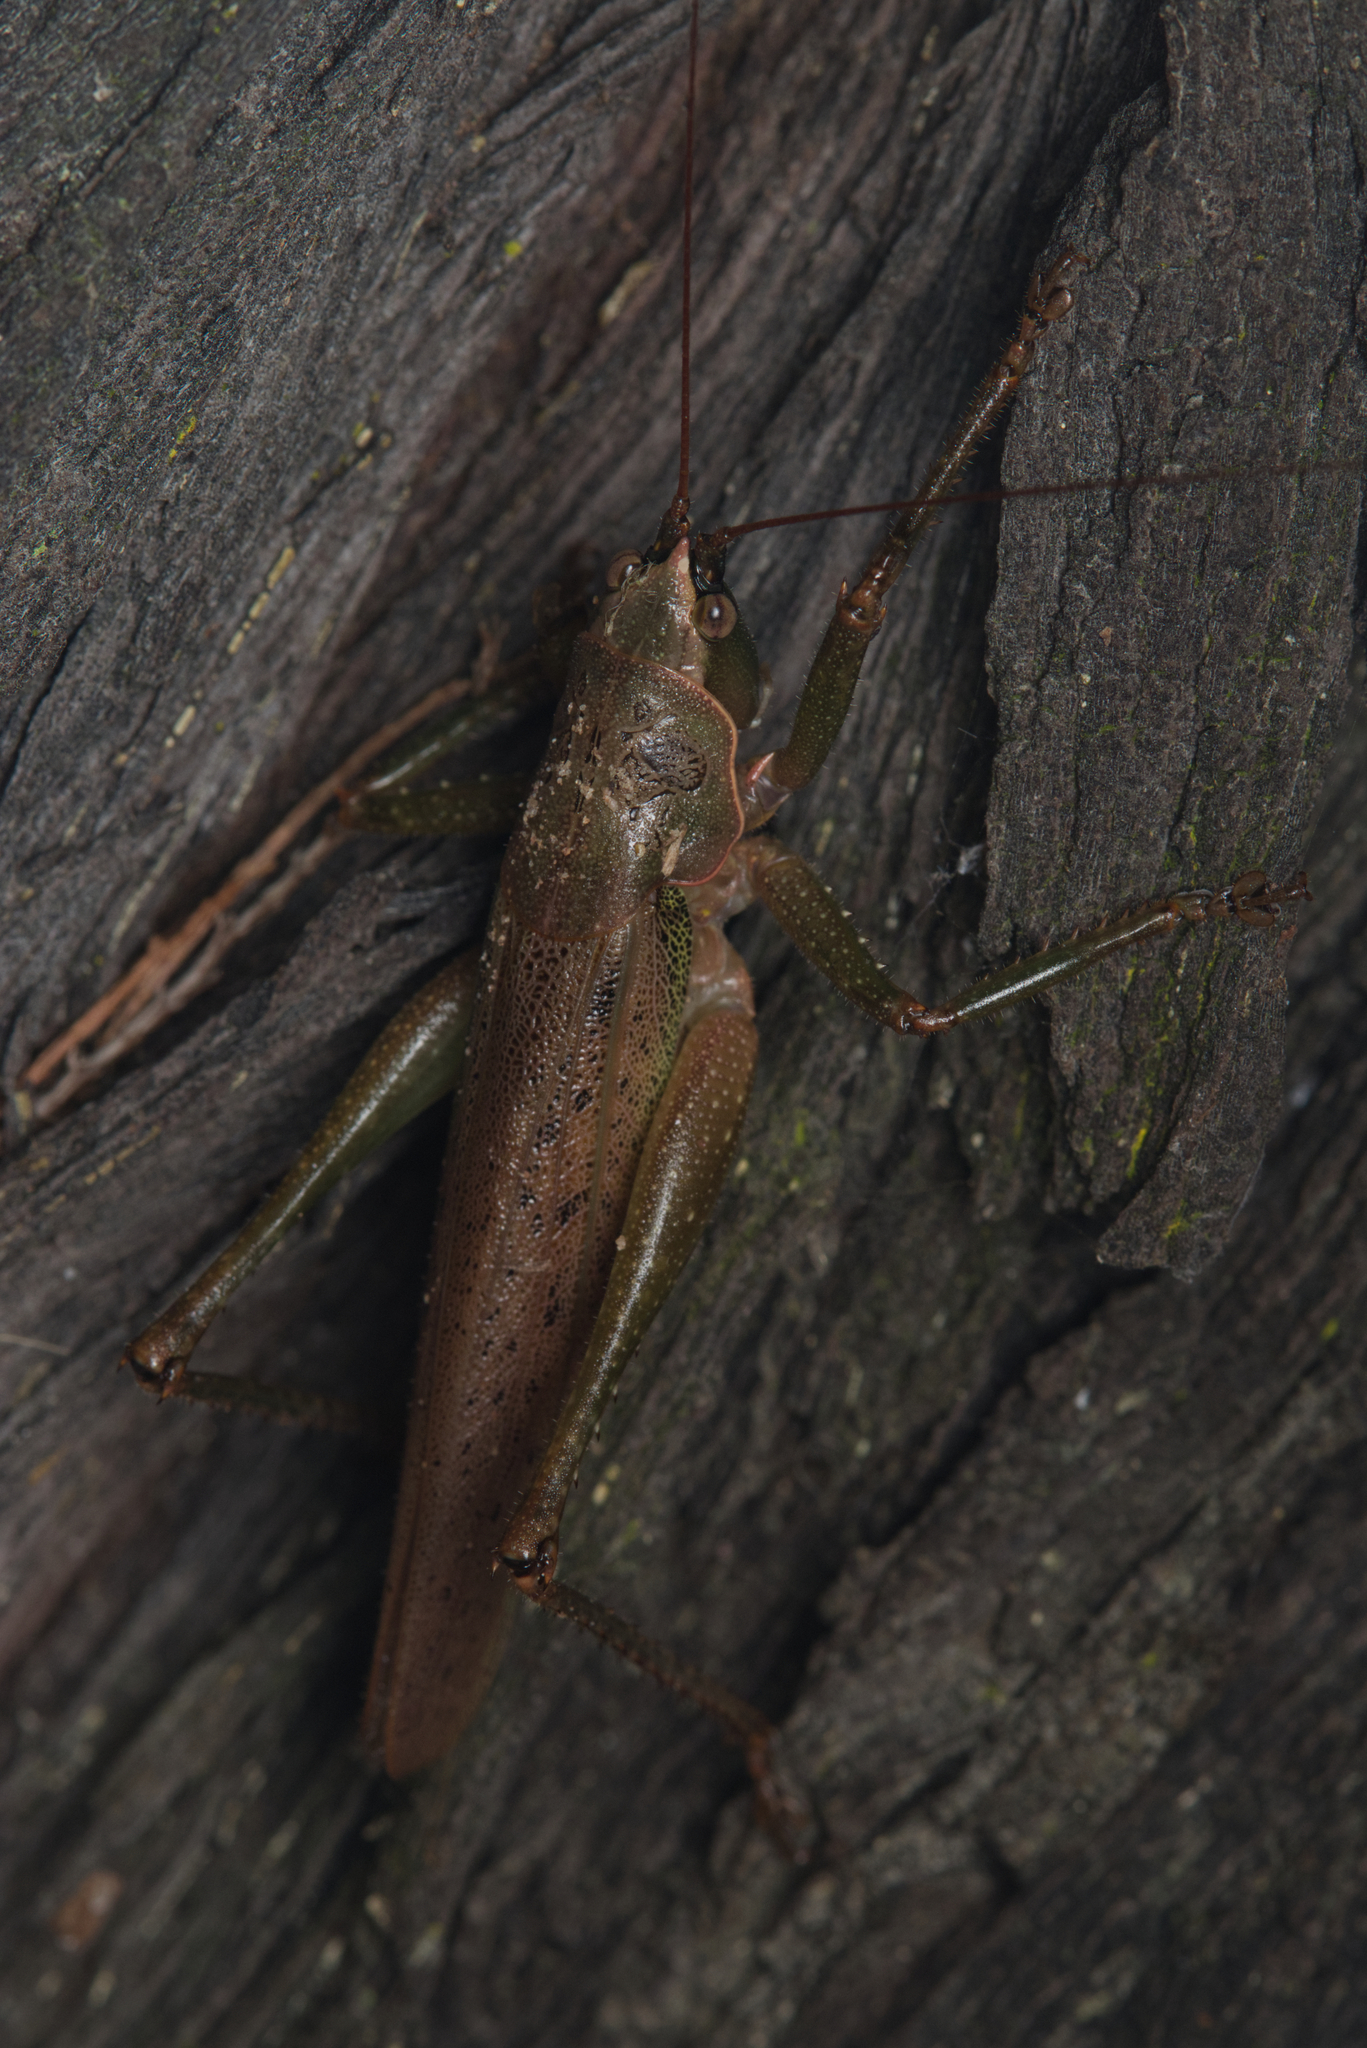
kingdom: Animalia
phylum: Arthropoda
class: Insecta
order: Orthoptera
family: Tettigoniidae
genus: Austrosalomona
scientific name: Austrosalomona falcata
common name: Olive-green coastal katydid
